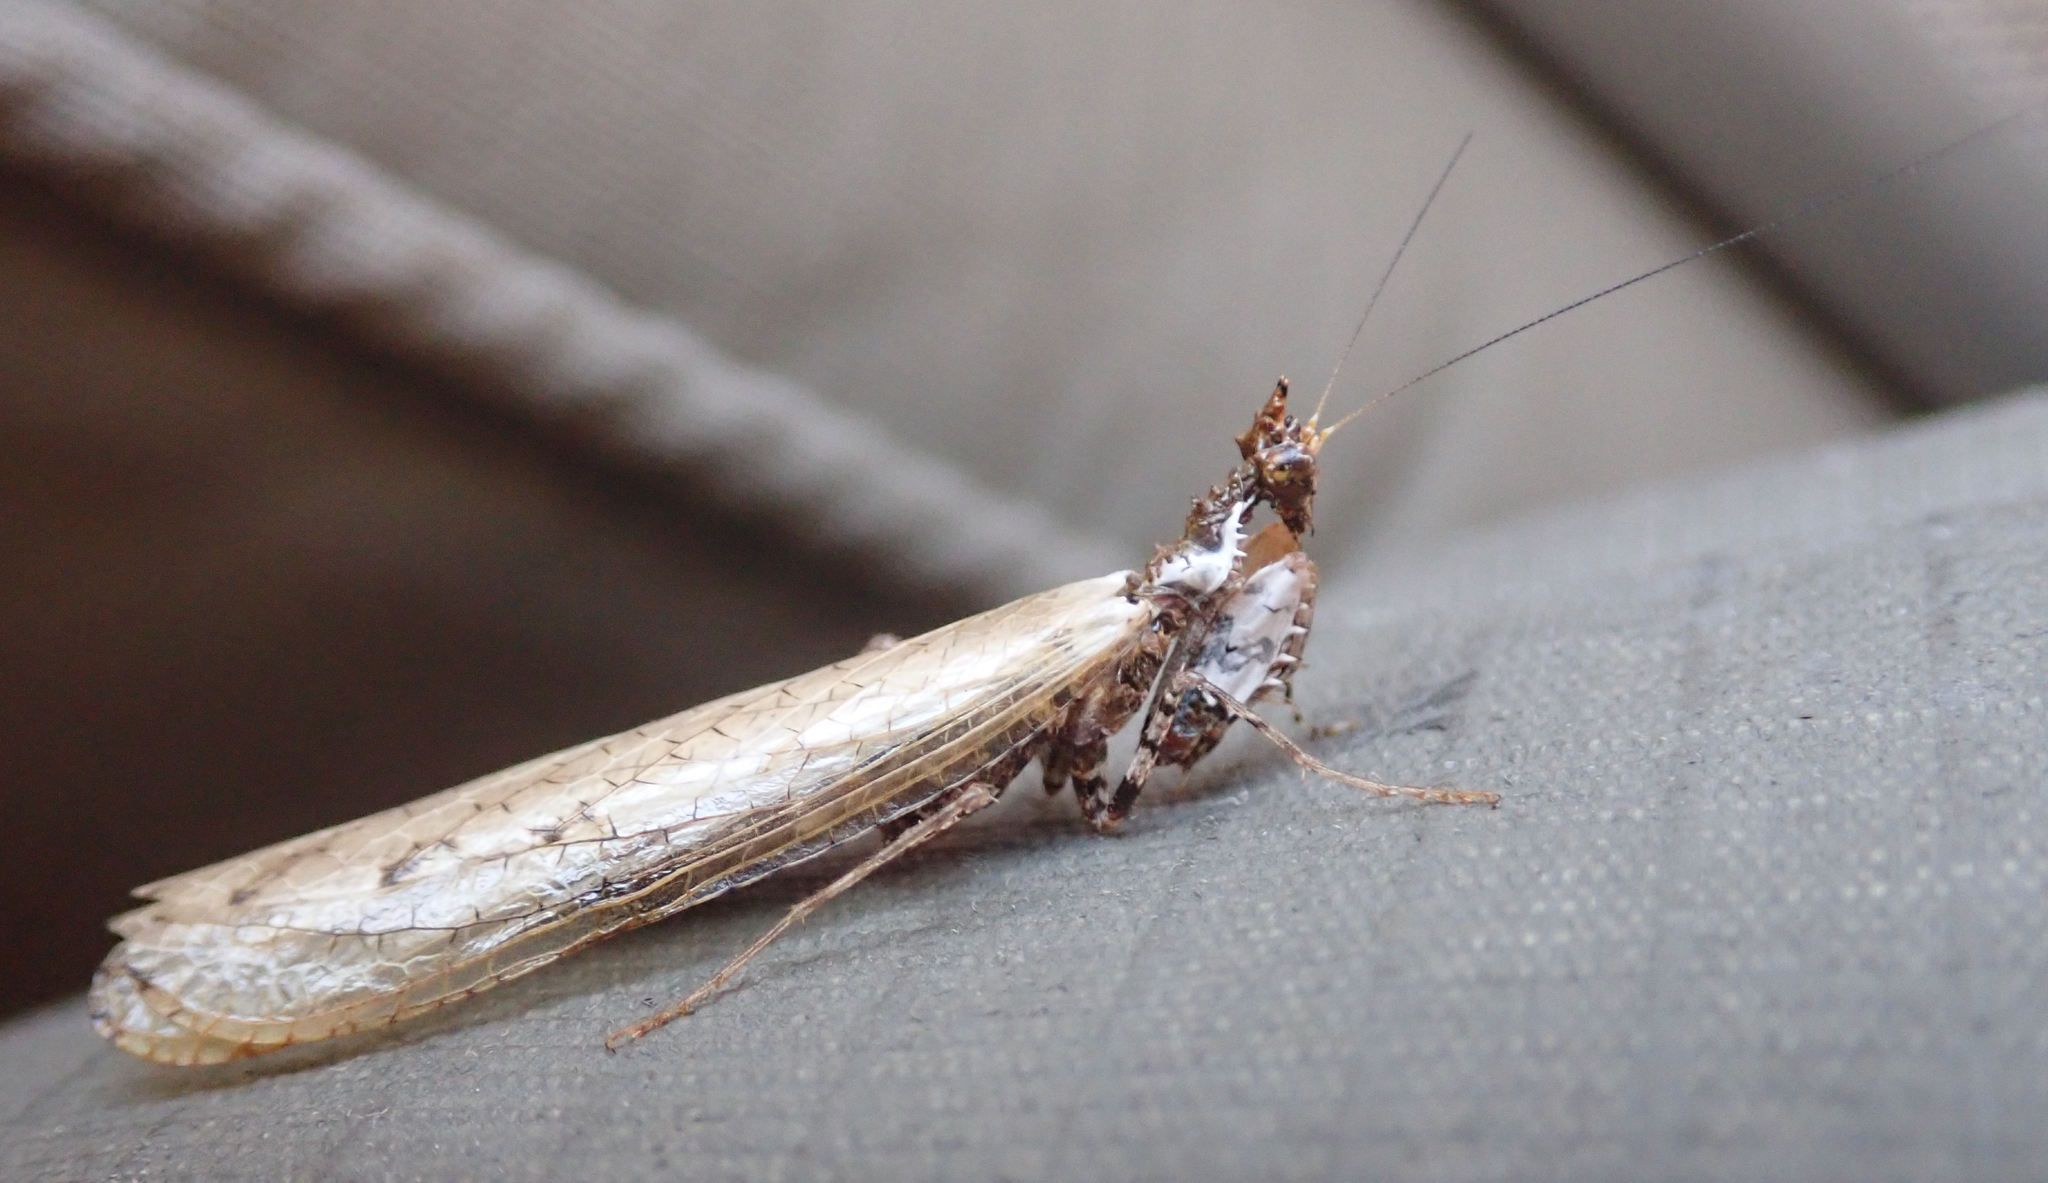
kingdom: Animalia
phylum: Arthropoda
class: Insecta
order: Mantodea
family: Hymenopodidae
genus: Oxypilus
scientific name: Oxypilus capensis
